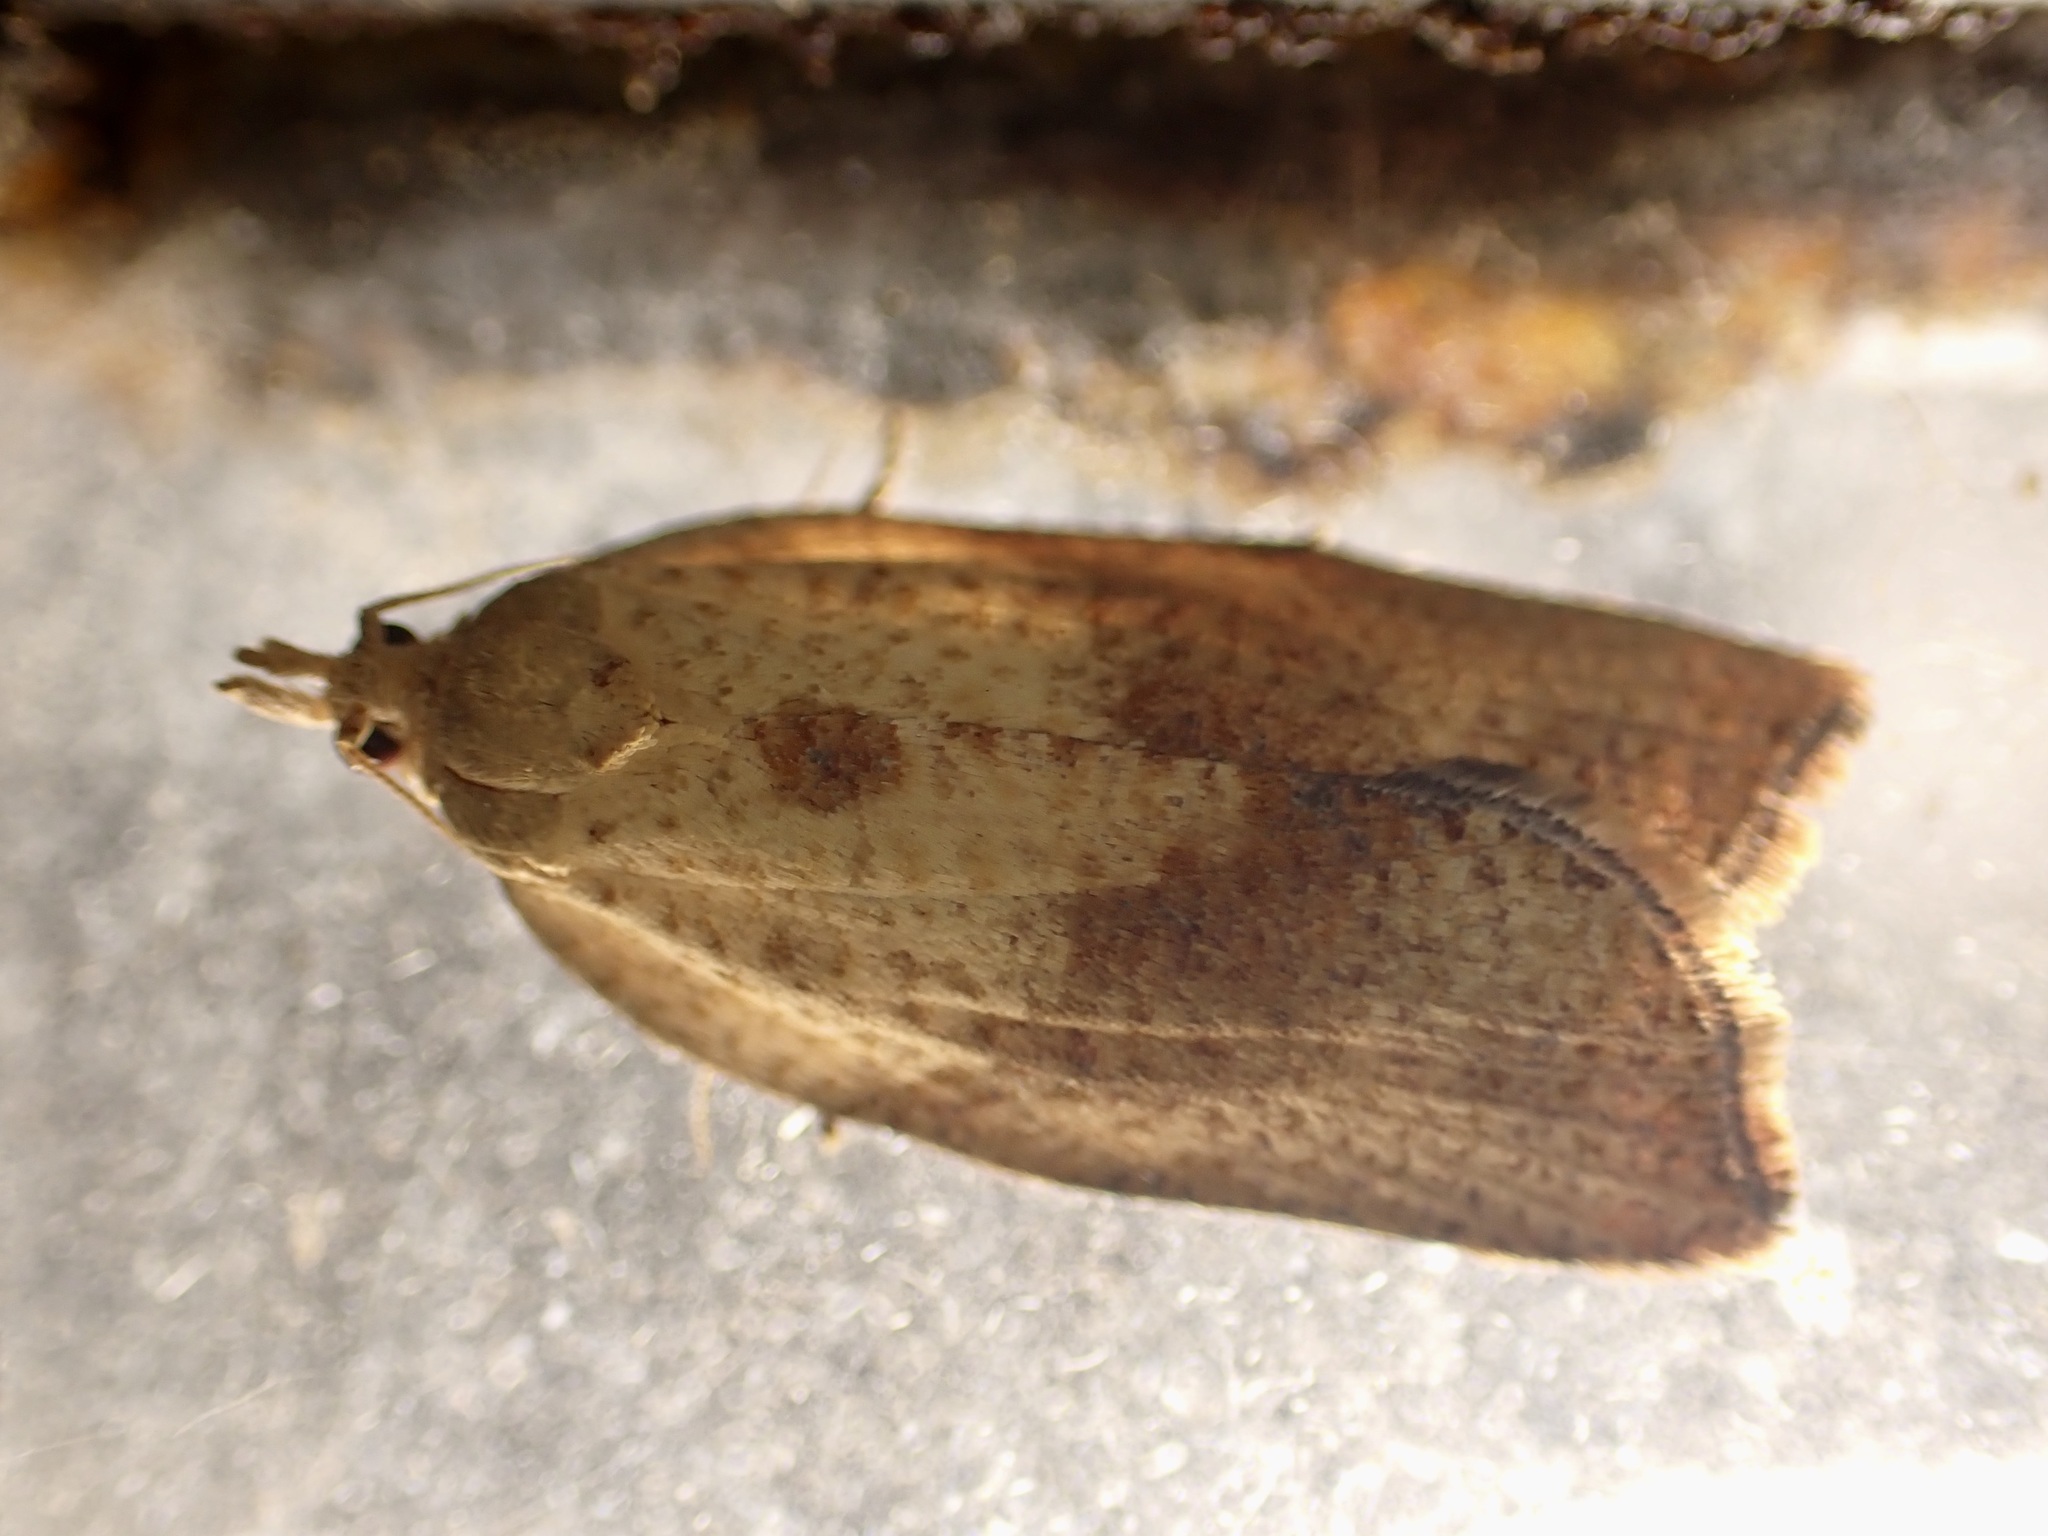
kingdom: Animalia
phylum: Arthropoda
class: Insecta
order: Lepidoptera
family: Tortricidae
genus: Epiphyas
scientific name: Epiphyas postvittana
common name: Light brown apple moth
